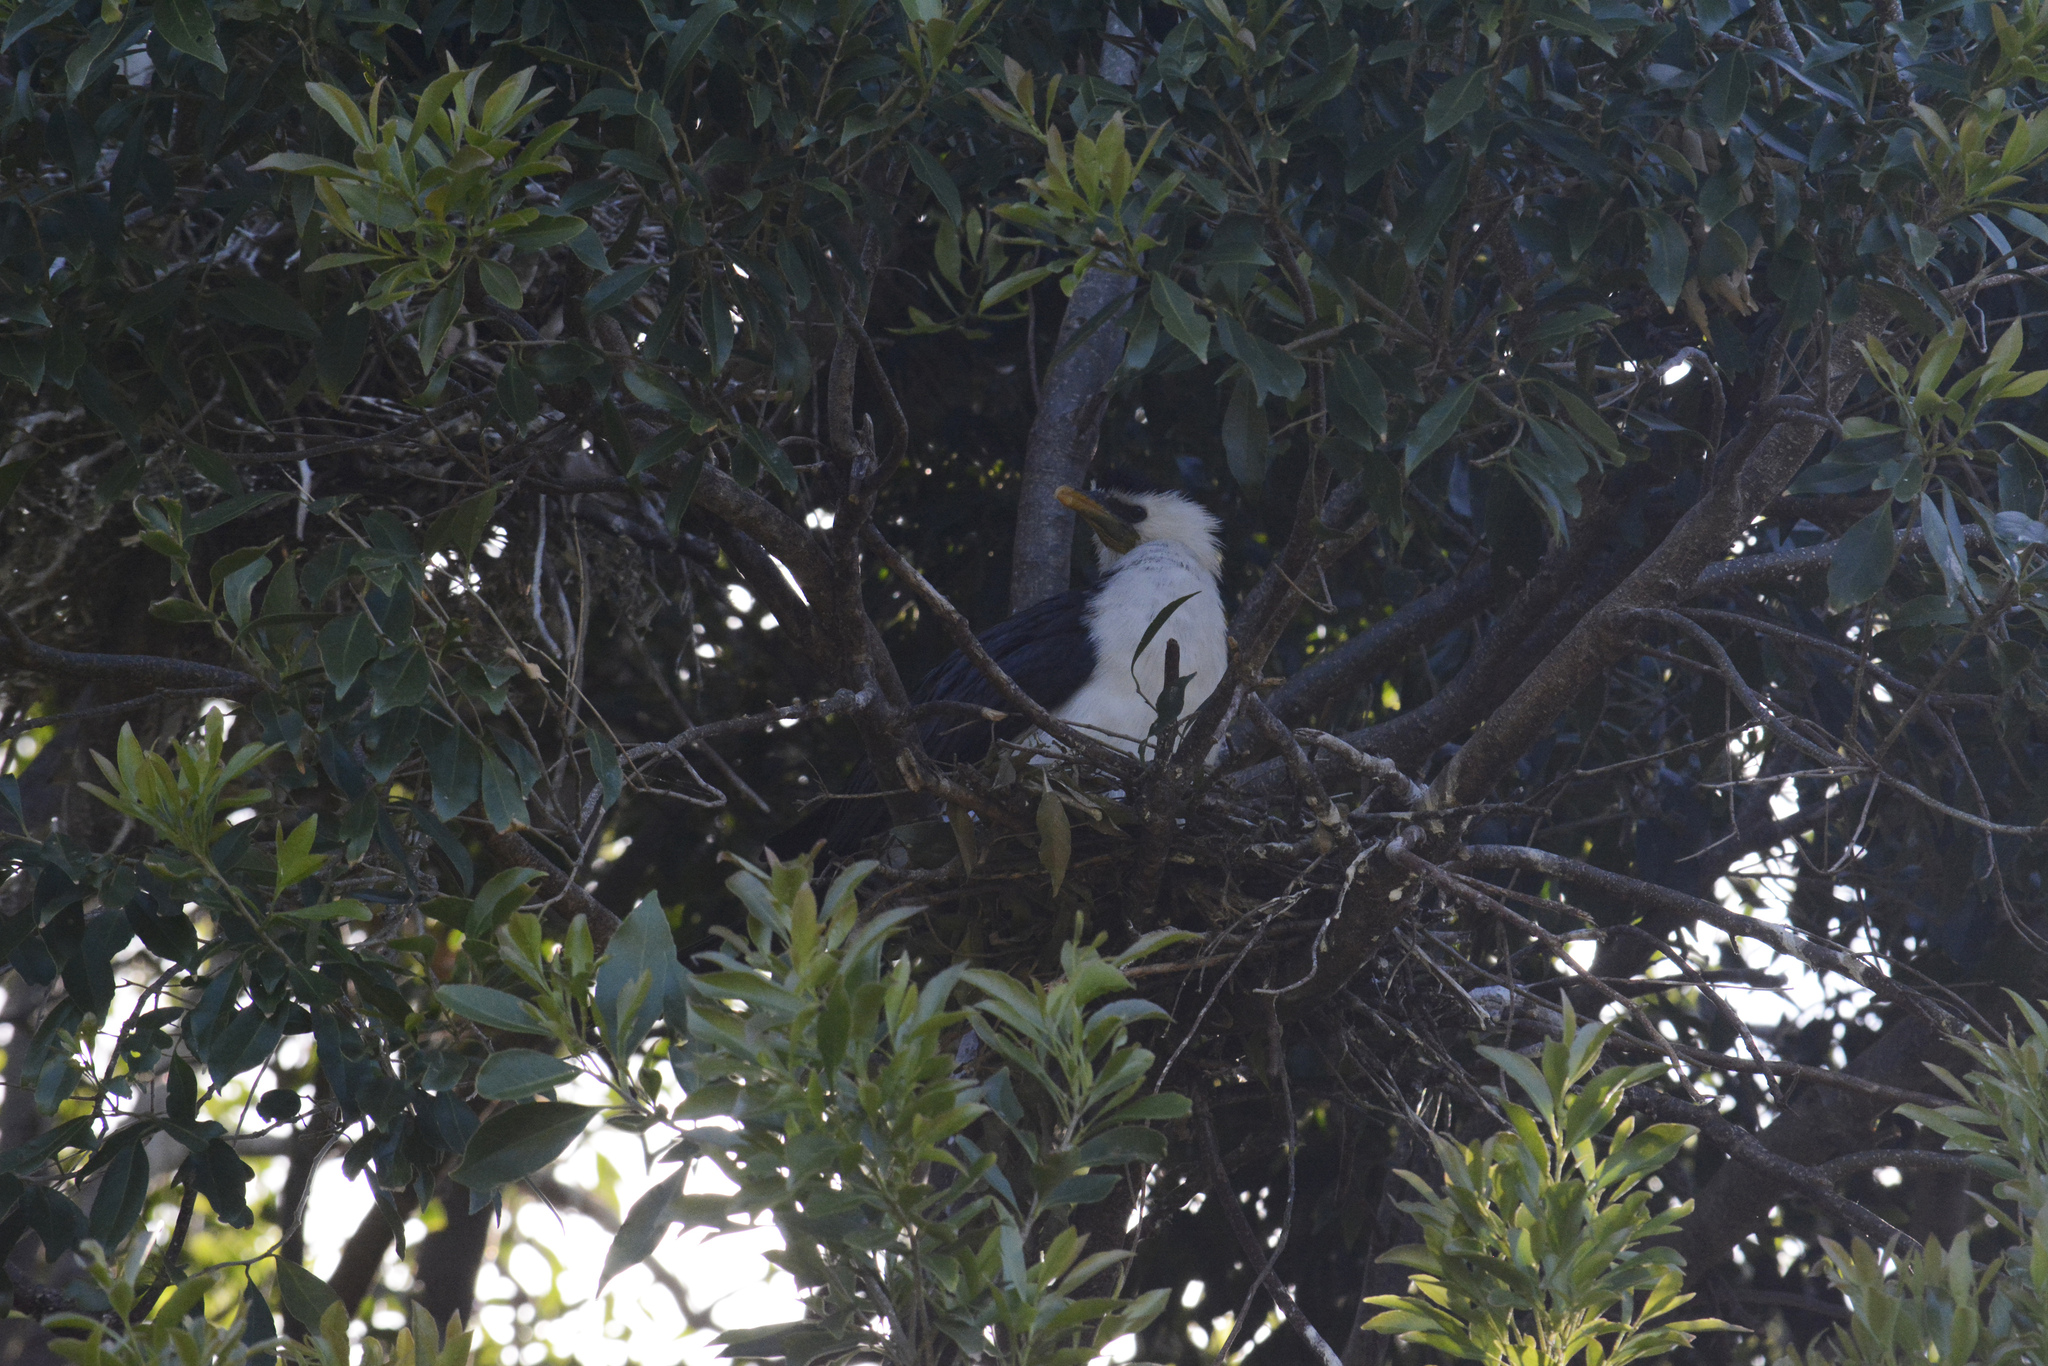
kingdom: Animalia
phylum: Chordata
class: Aves
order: Suliformes
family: Phalacrocoracidae
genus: Microcarbo
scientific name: Microcarbo melanoleucos
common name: Little pied cormorant
